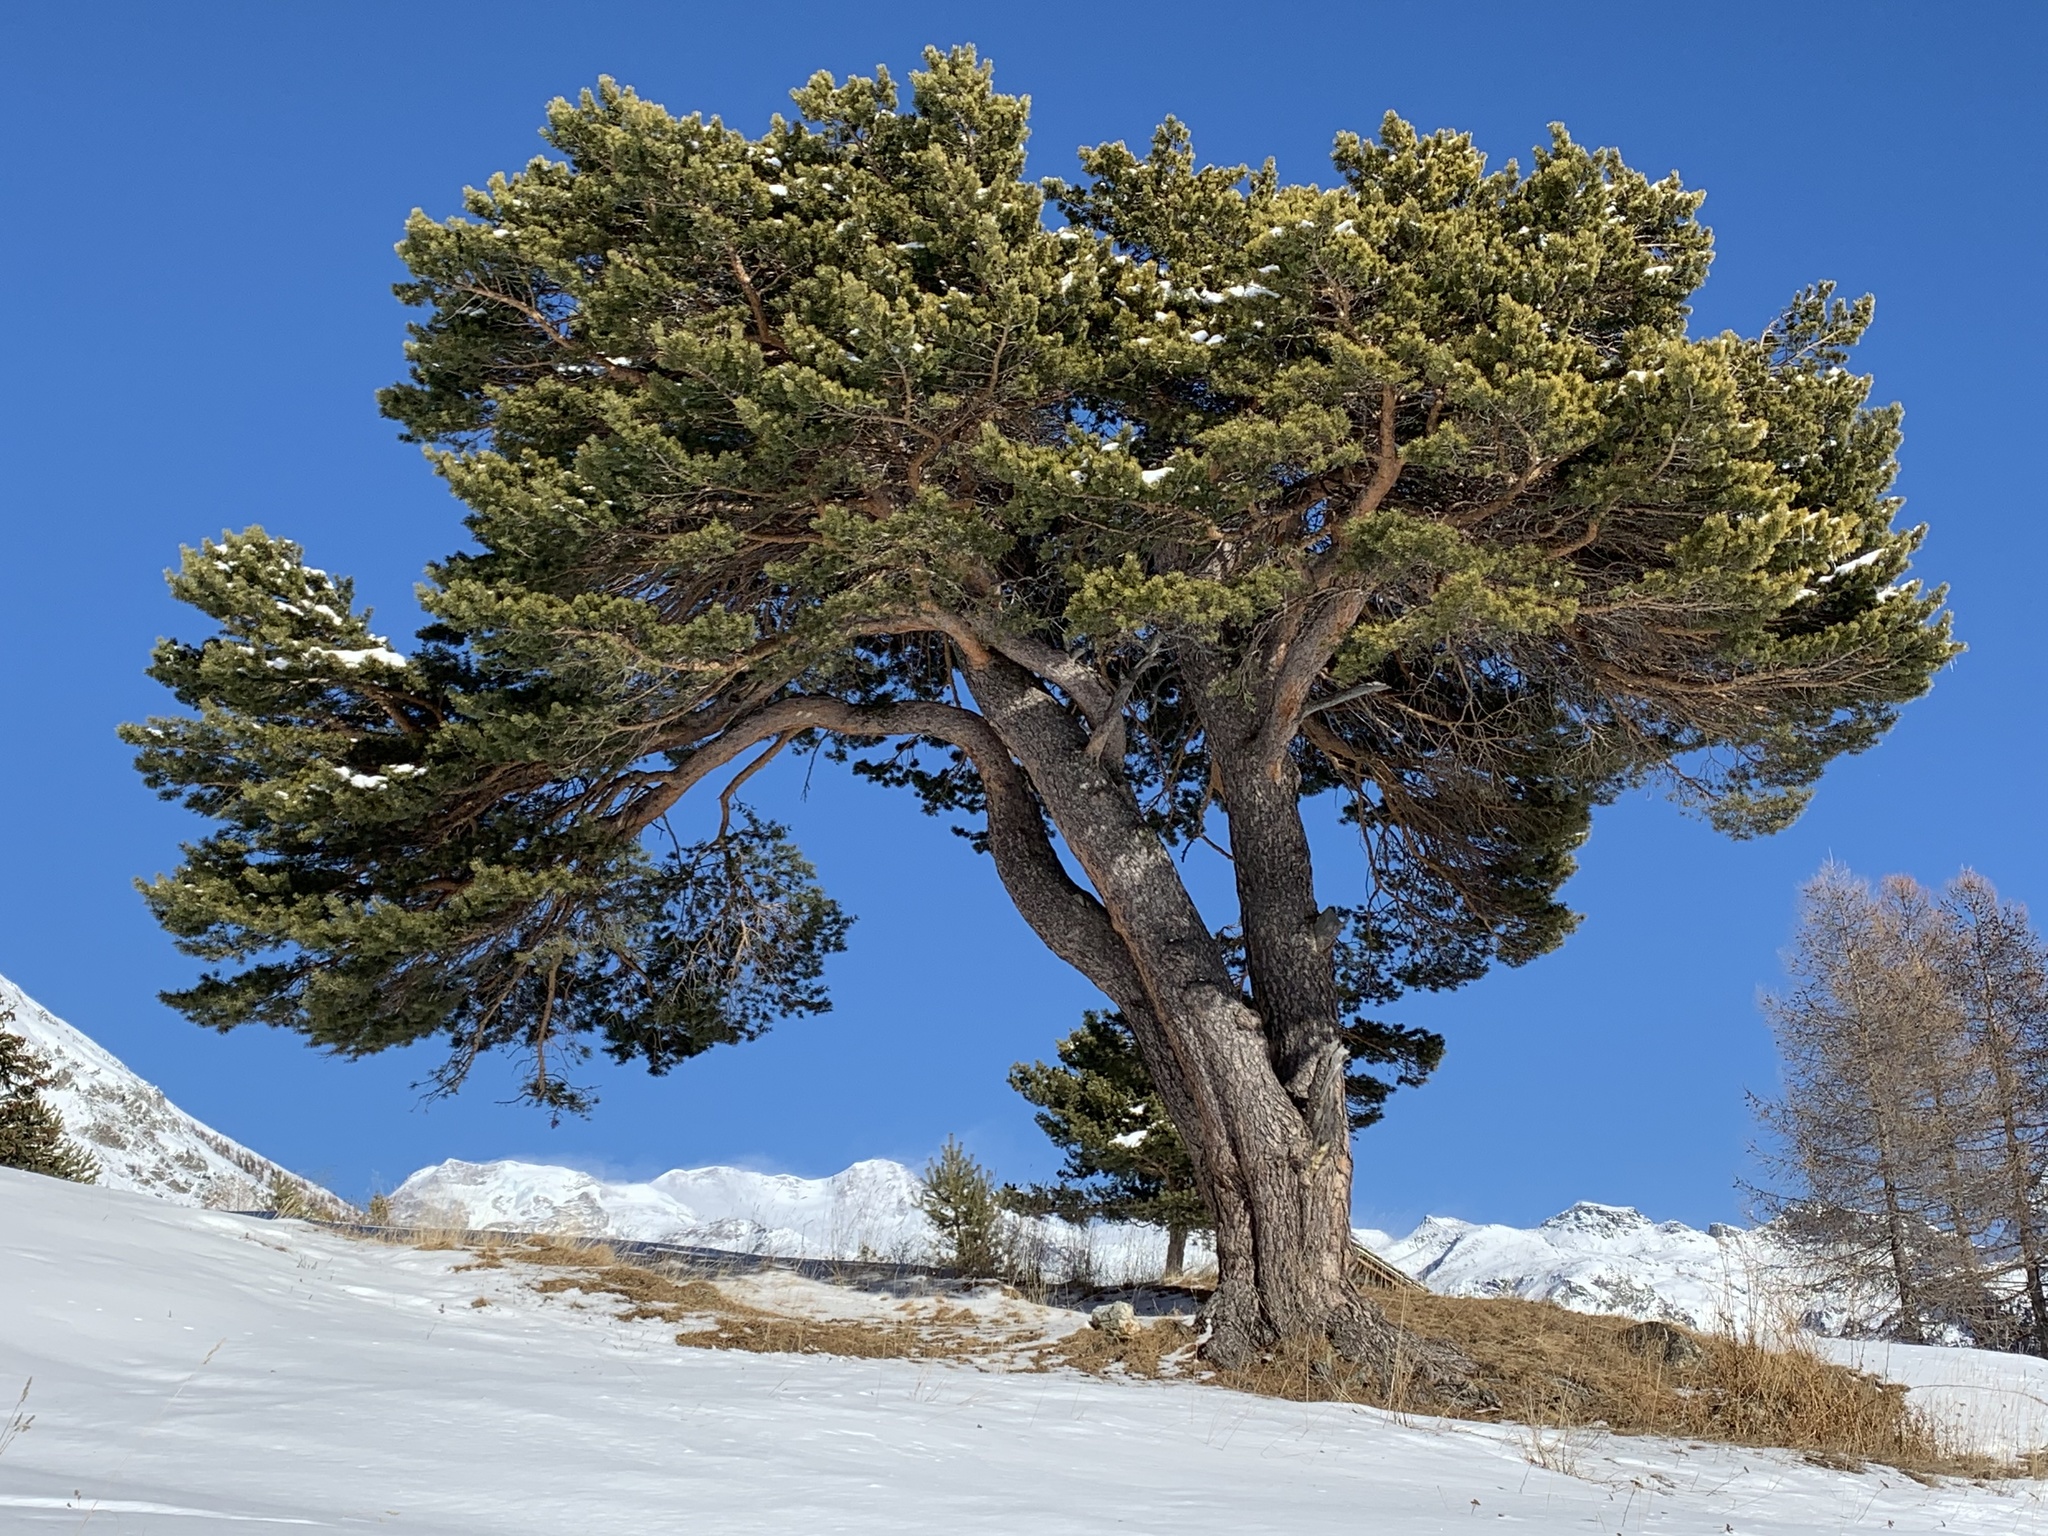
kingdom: Plantae
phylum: Tracheophyta
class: Pinopsida
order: Pinales
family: Pinaceae
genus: Pinus
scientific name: Pinus sylvestris
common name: Scots pine
